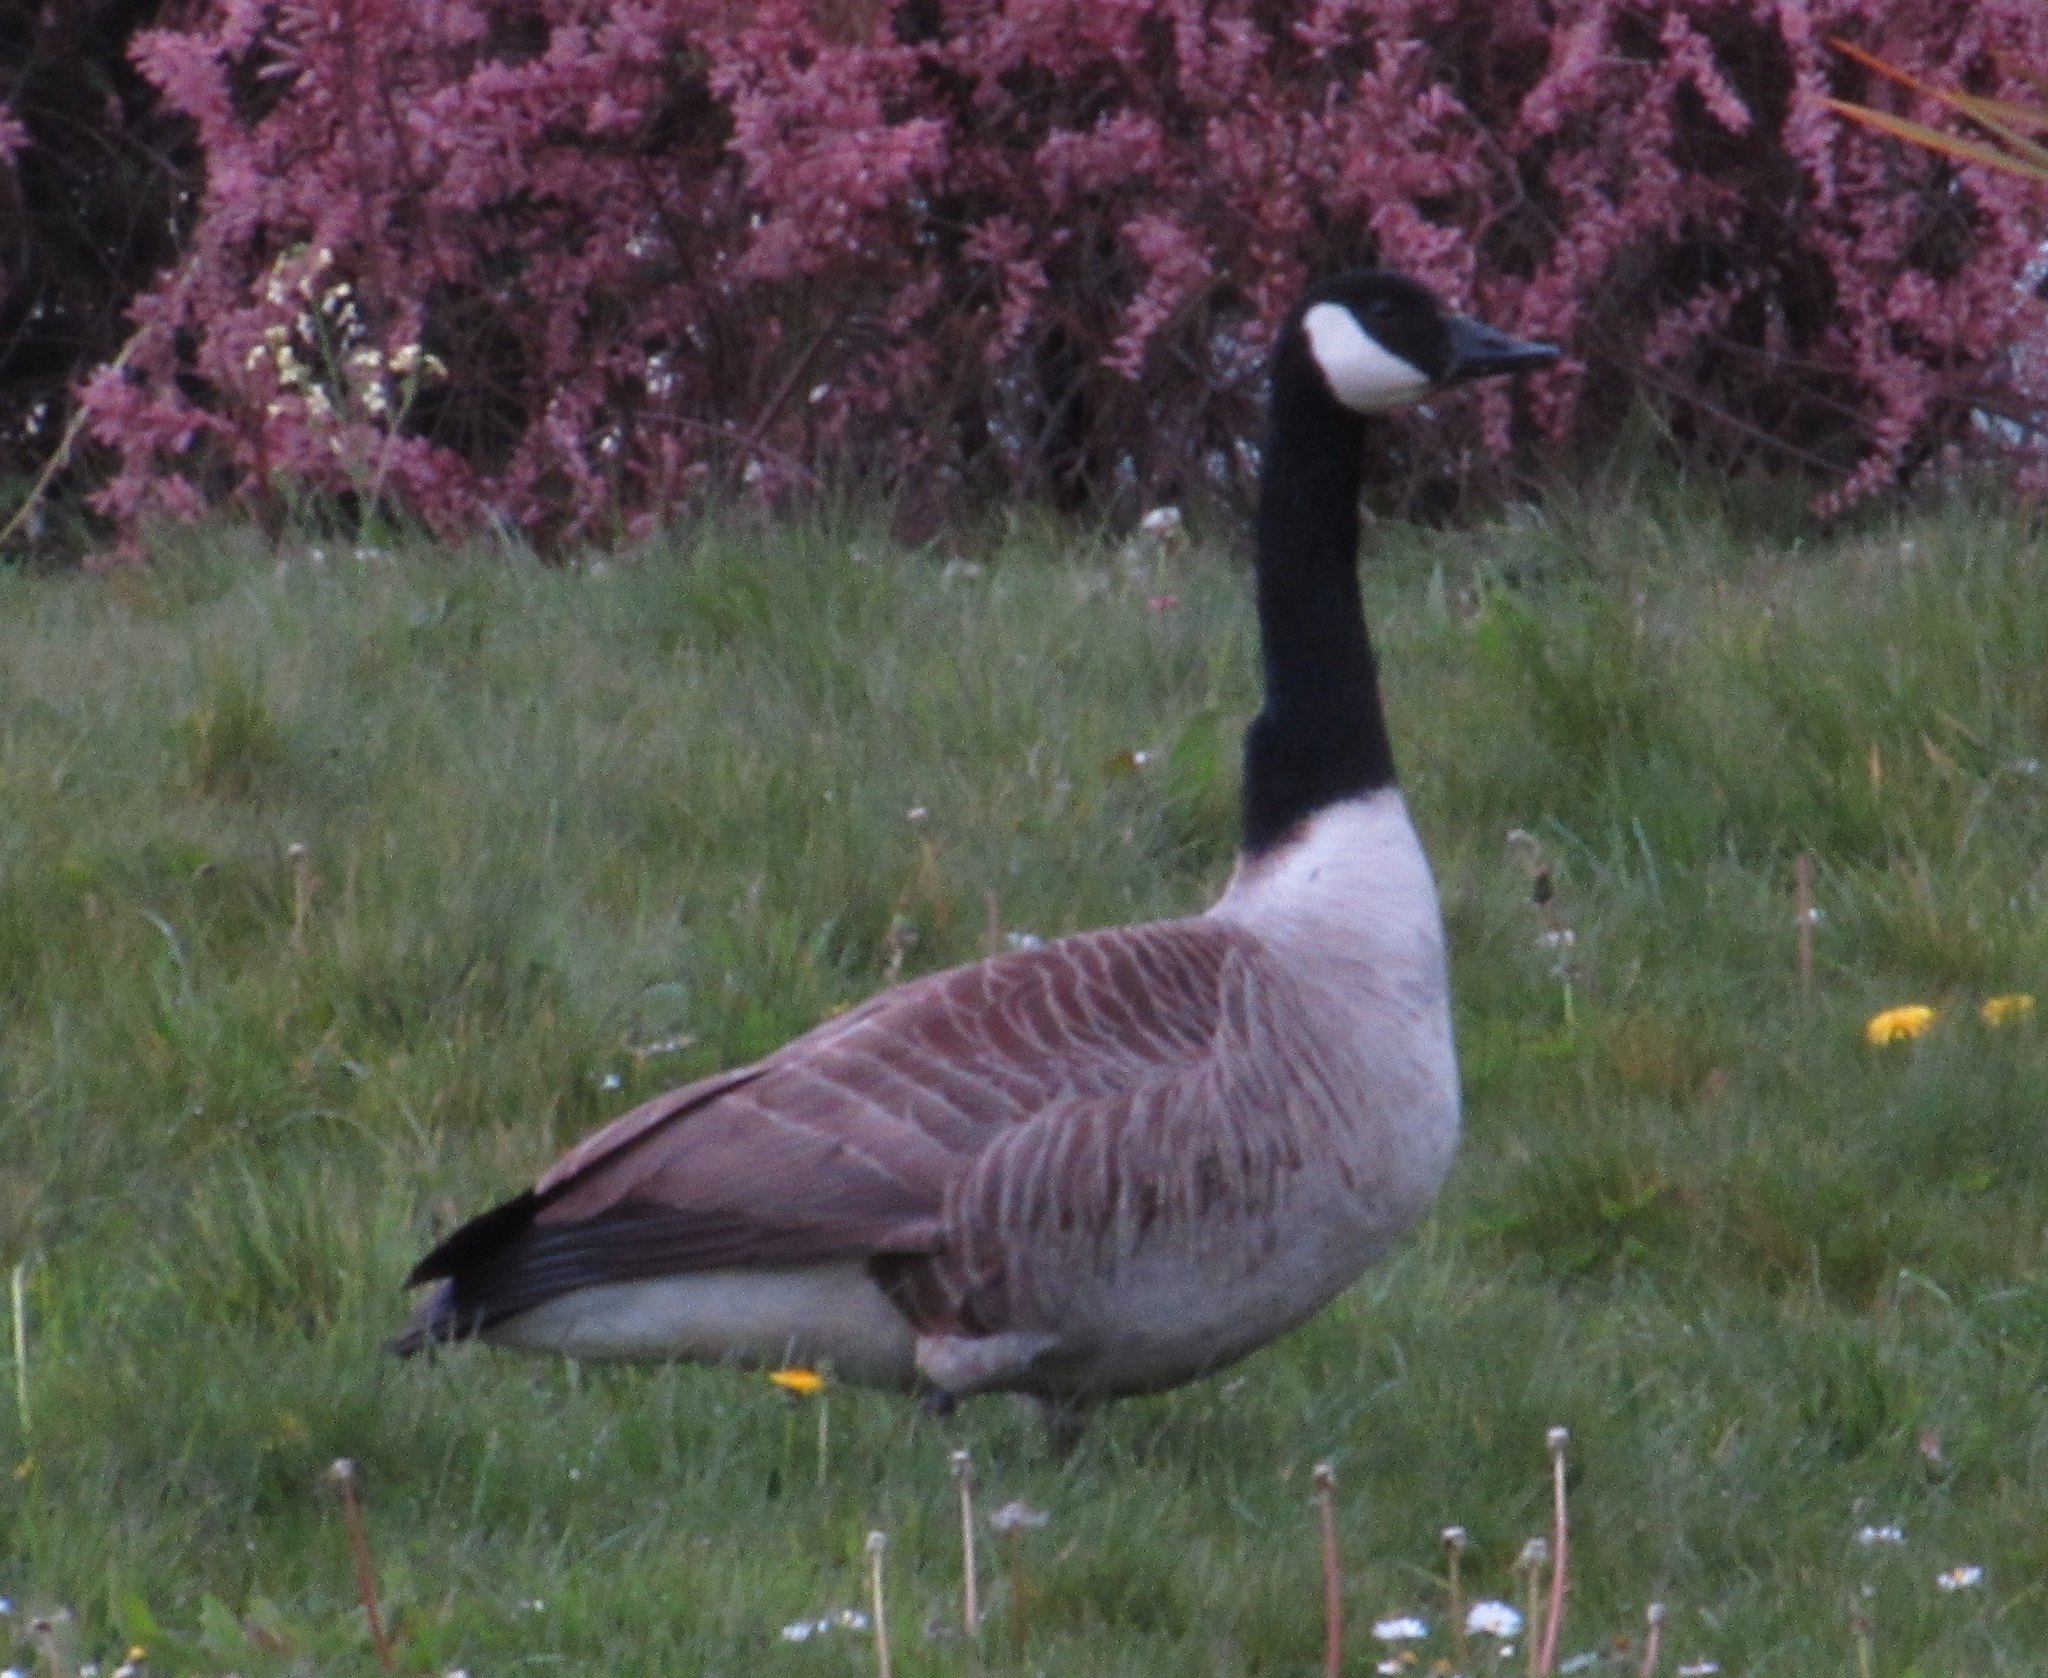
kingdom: Animalia
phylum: Chordata
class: Aves
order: Anseriformes
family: Anatidae
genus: Branta
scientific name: Branta canadensis
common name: Canada goose
